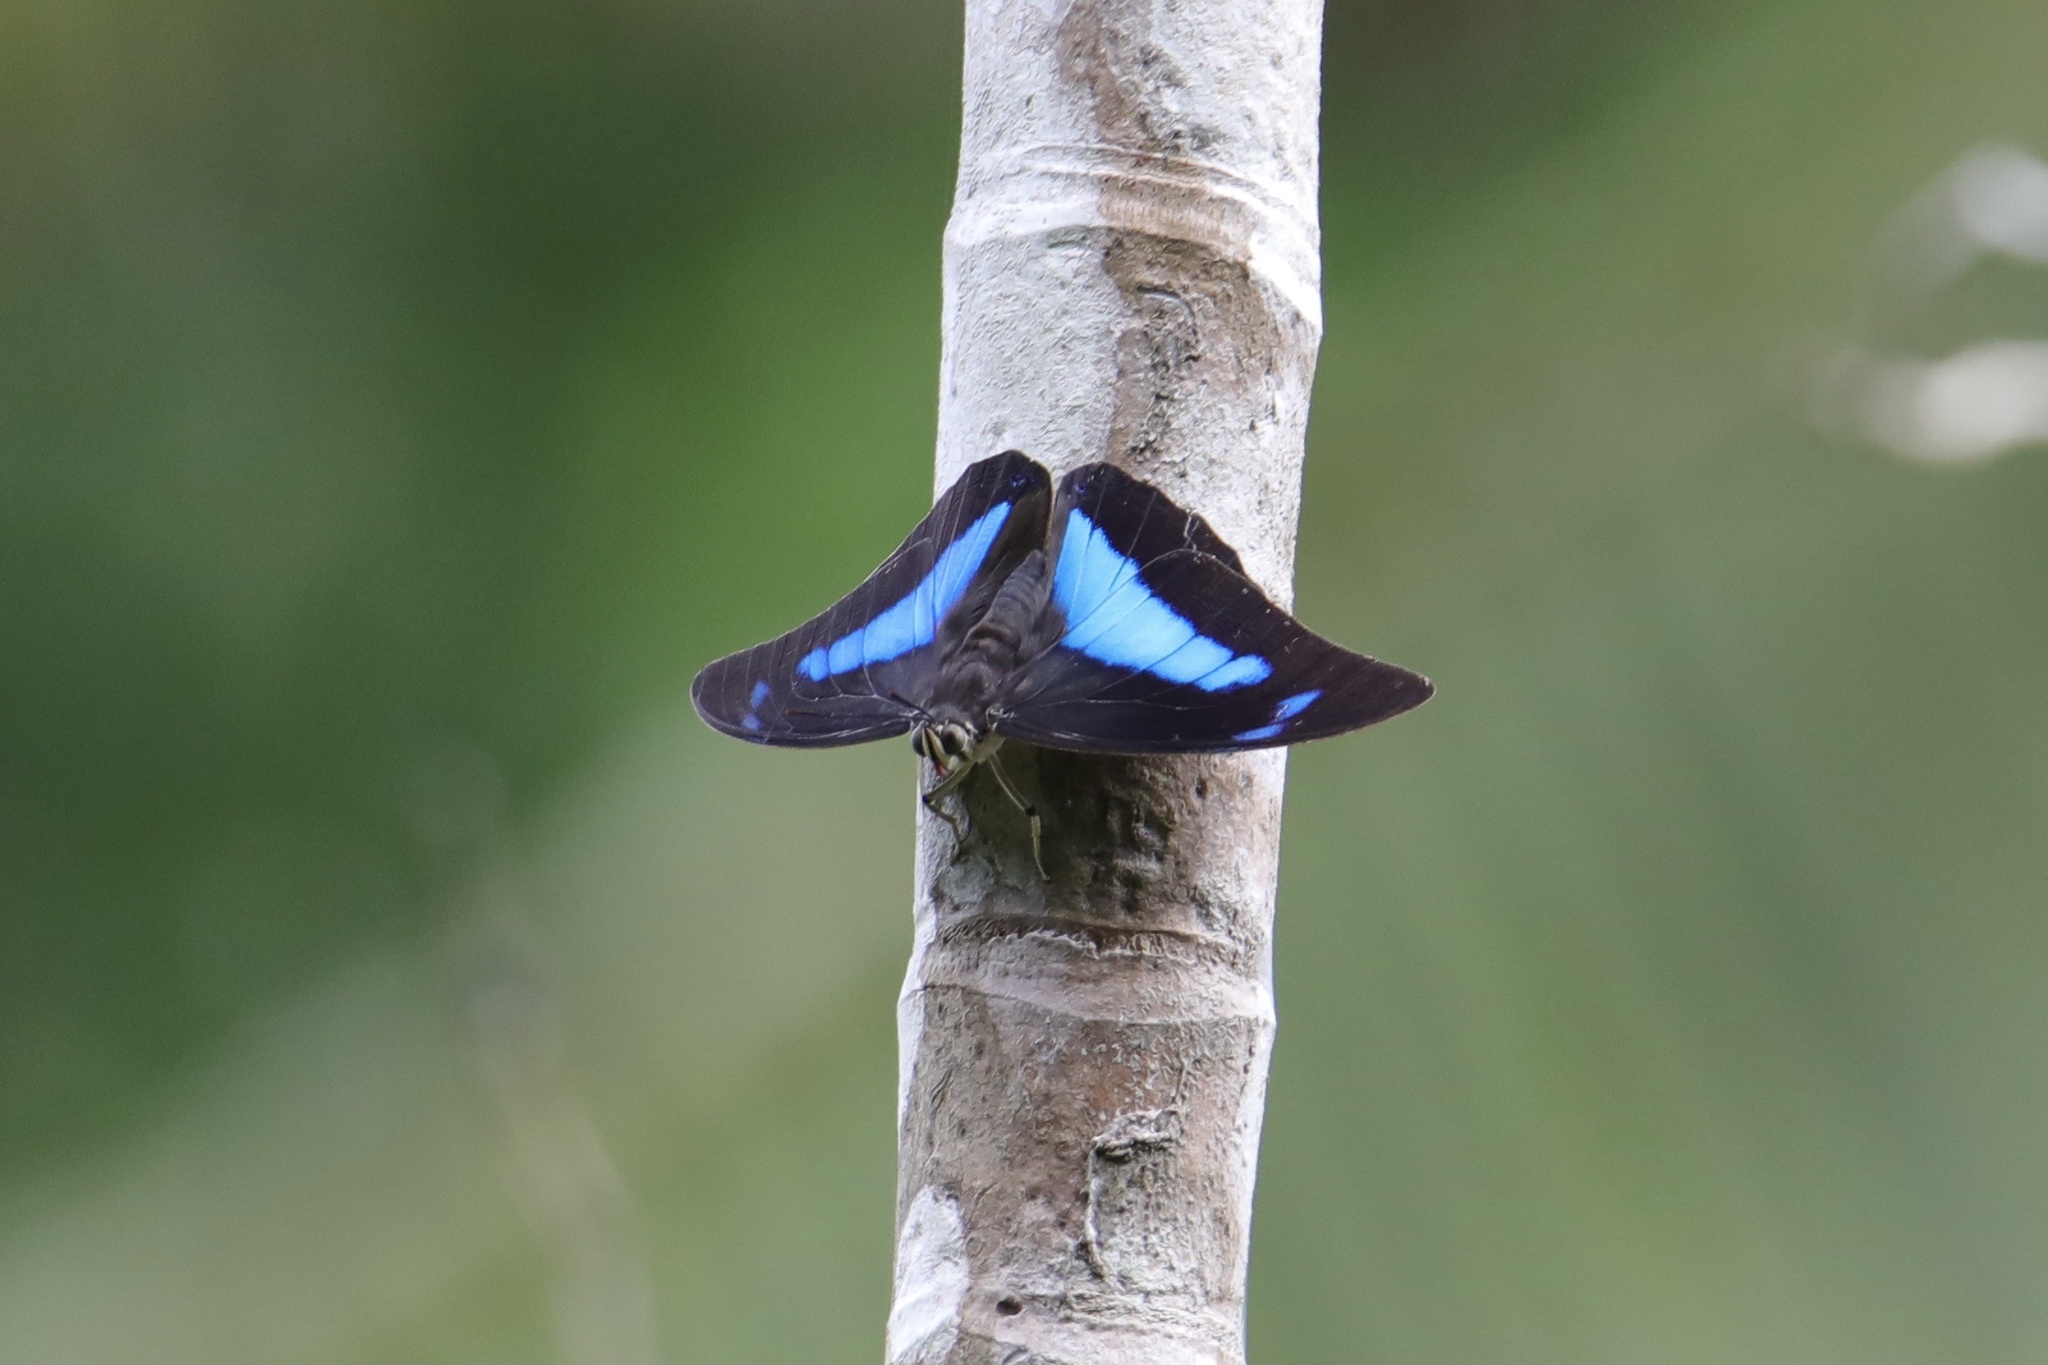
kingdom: Animalia
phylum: Arthropoda
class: Insecta
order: Lepidoptera
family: Nymphalidae
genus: Prepona
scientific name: Prepona demophon
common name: One-spotted prepona
